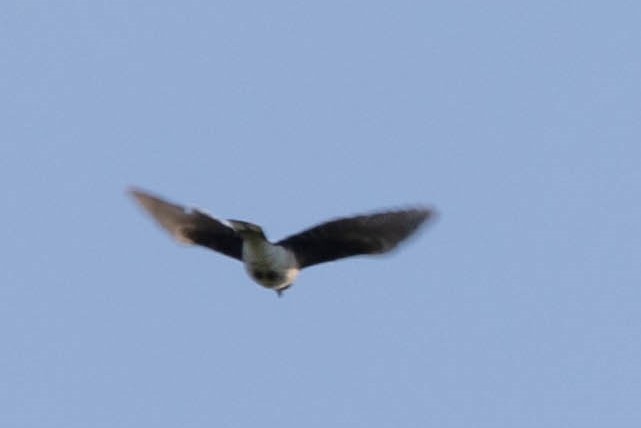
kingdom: Animalia
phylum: Chordata
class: Aves
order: Passeriformes
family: Corvidae
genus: Cyanocitta
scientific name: Cyanocitta cristata
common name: Blue jay
